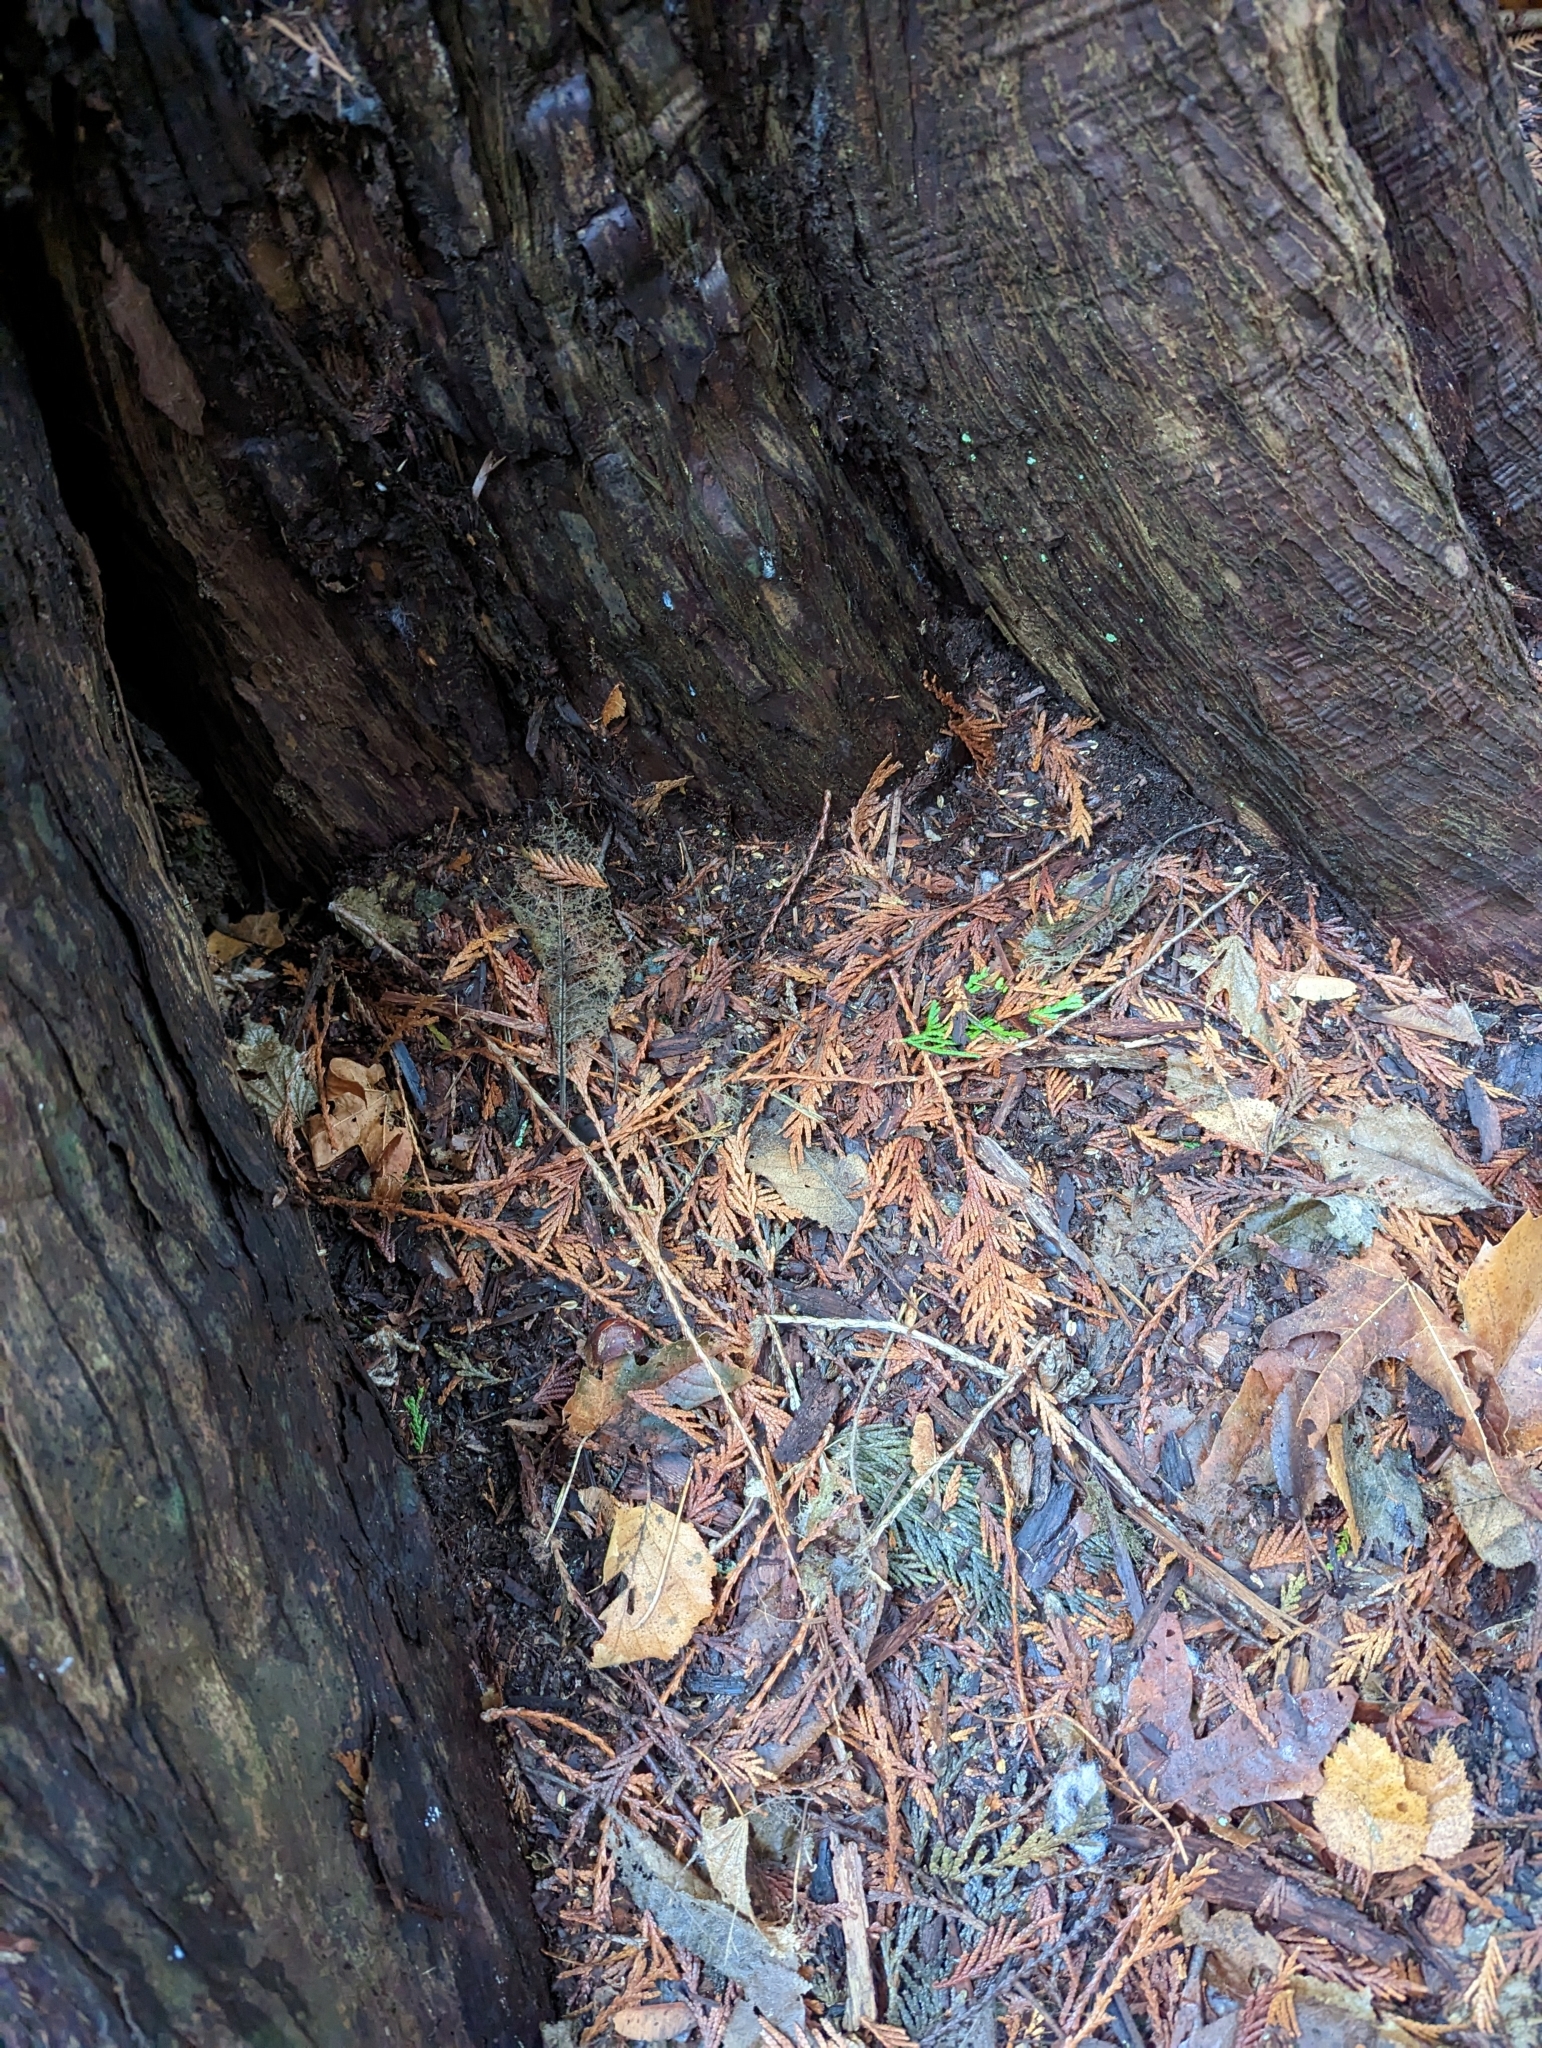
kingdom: Plantae
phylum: Tracheophyta
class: Pinopsida
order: Pinales
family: Cupressaceae
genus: Thuja
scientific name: Thuja plicata
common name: Western red-cedar
